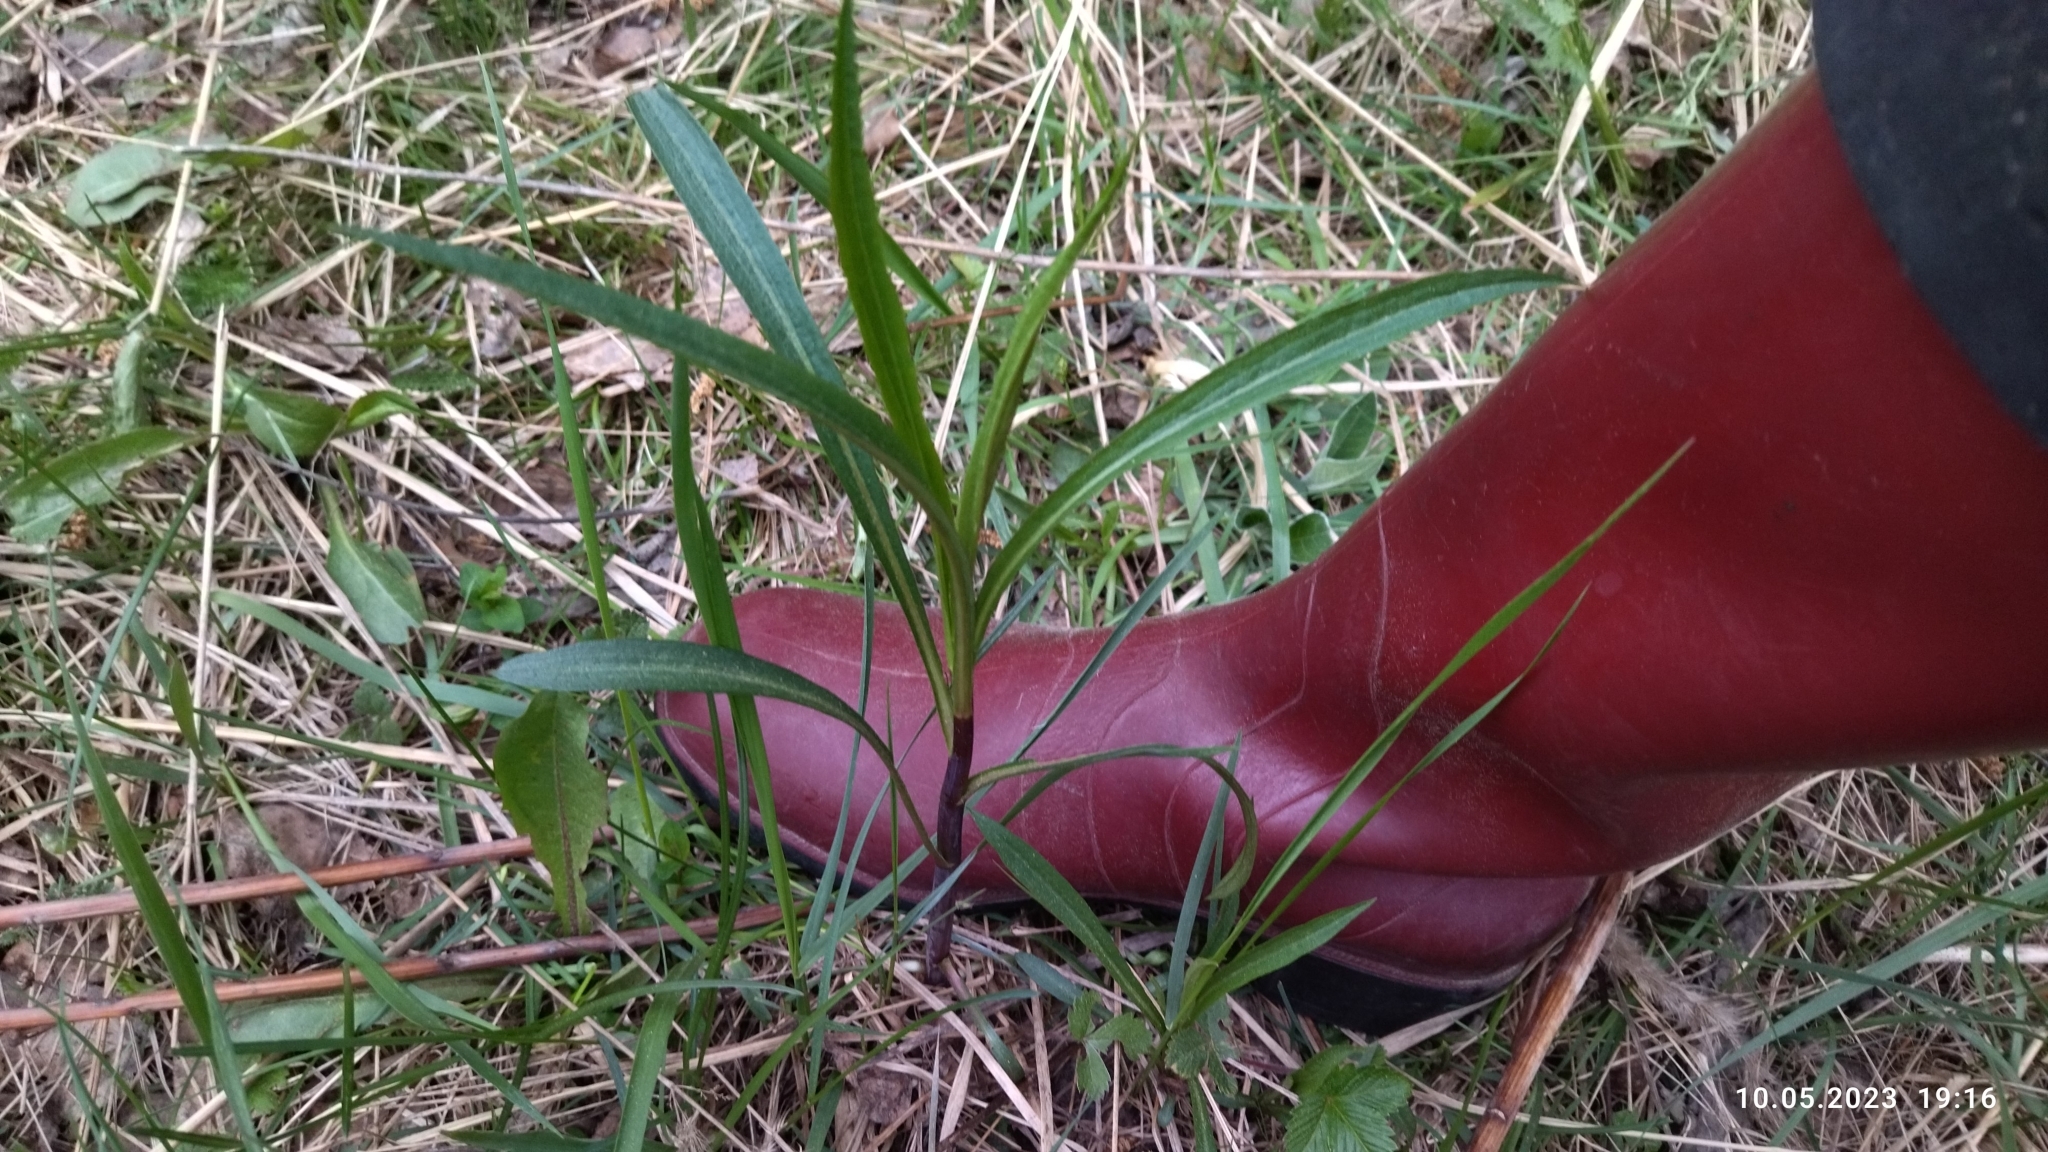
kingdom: Plantae
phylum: Tracheophyta
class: Magnoliopsida
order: Asterales
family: Asteraceae
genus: Solidago
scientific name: Solidago gigantea
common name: Giant goldenrod
